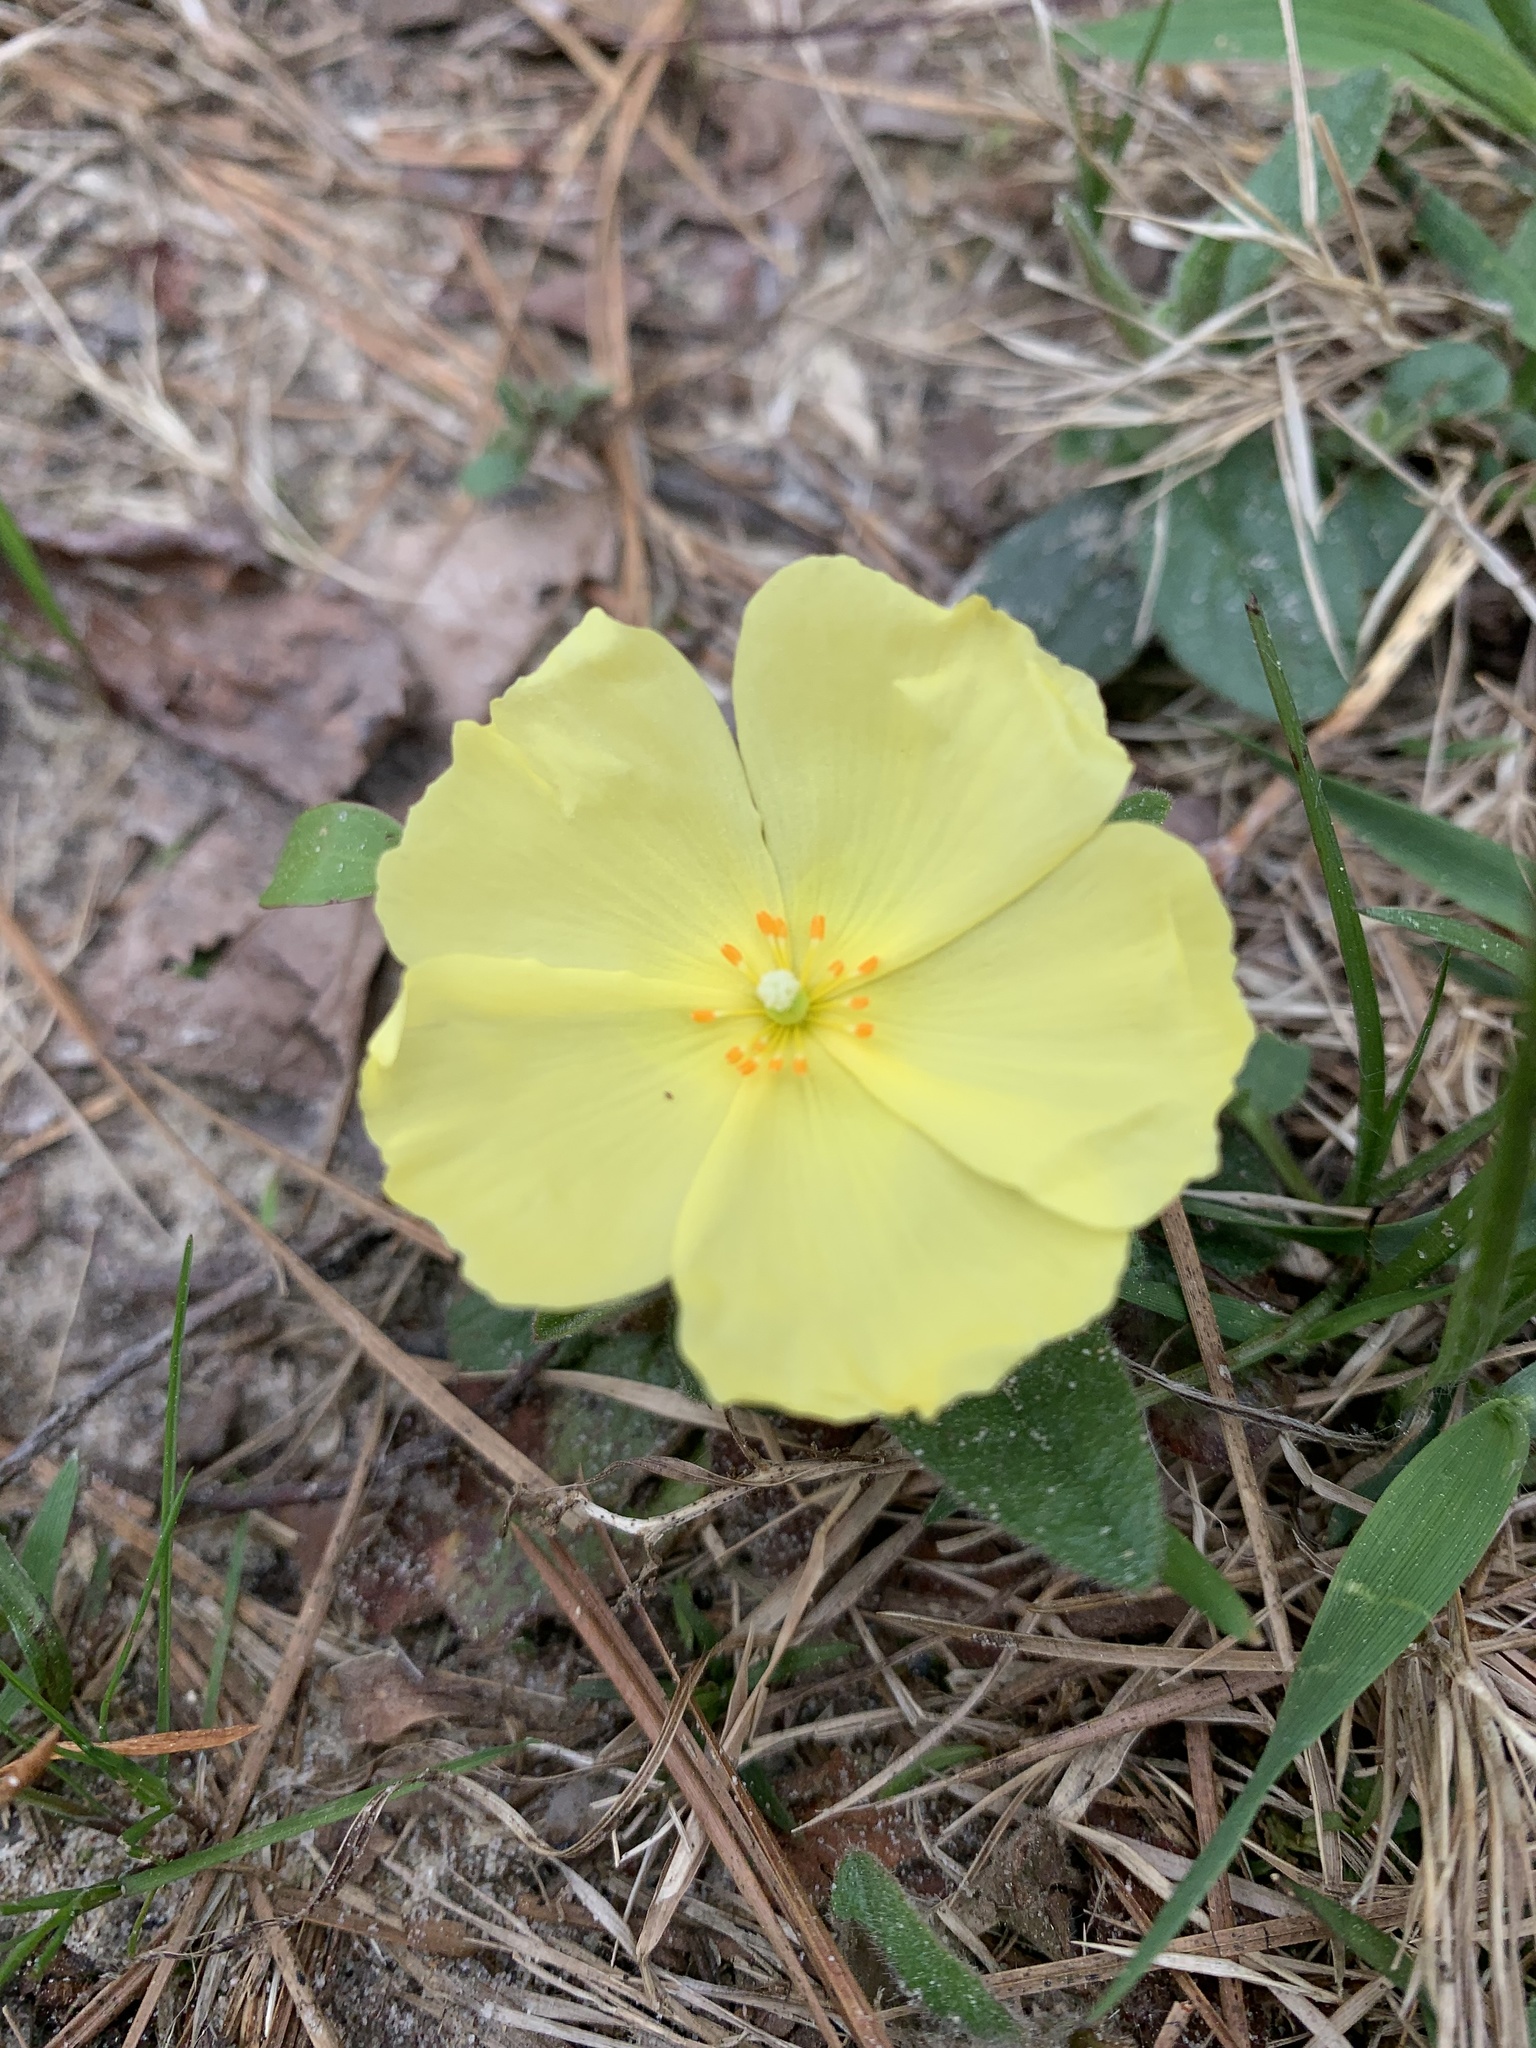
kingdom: Plantae
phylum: Tracheophyta
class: Magnoliopsida
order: Malvales
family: Cistaceae
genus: Crocanthemum
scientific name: Crocanthemum carolinianum
